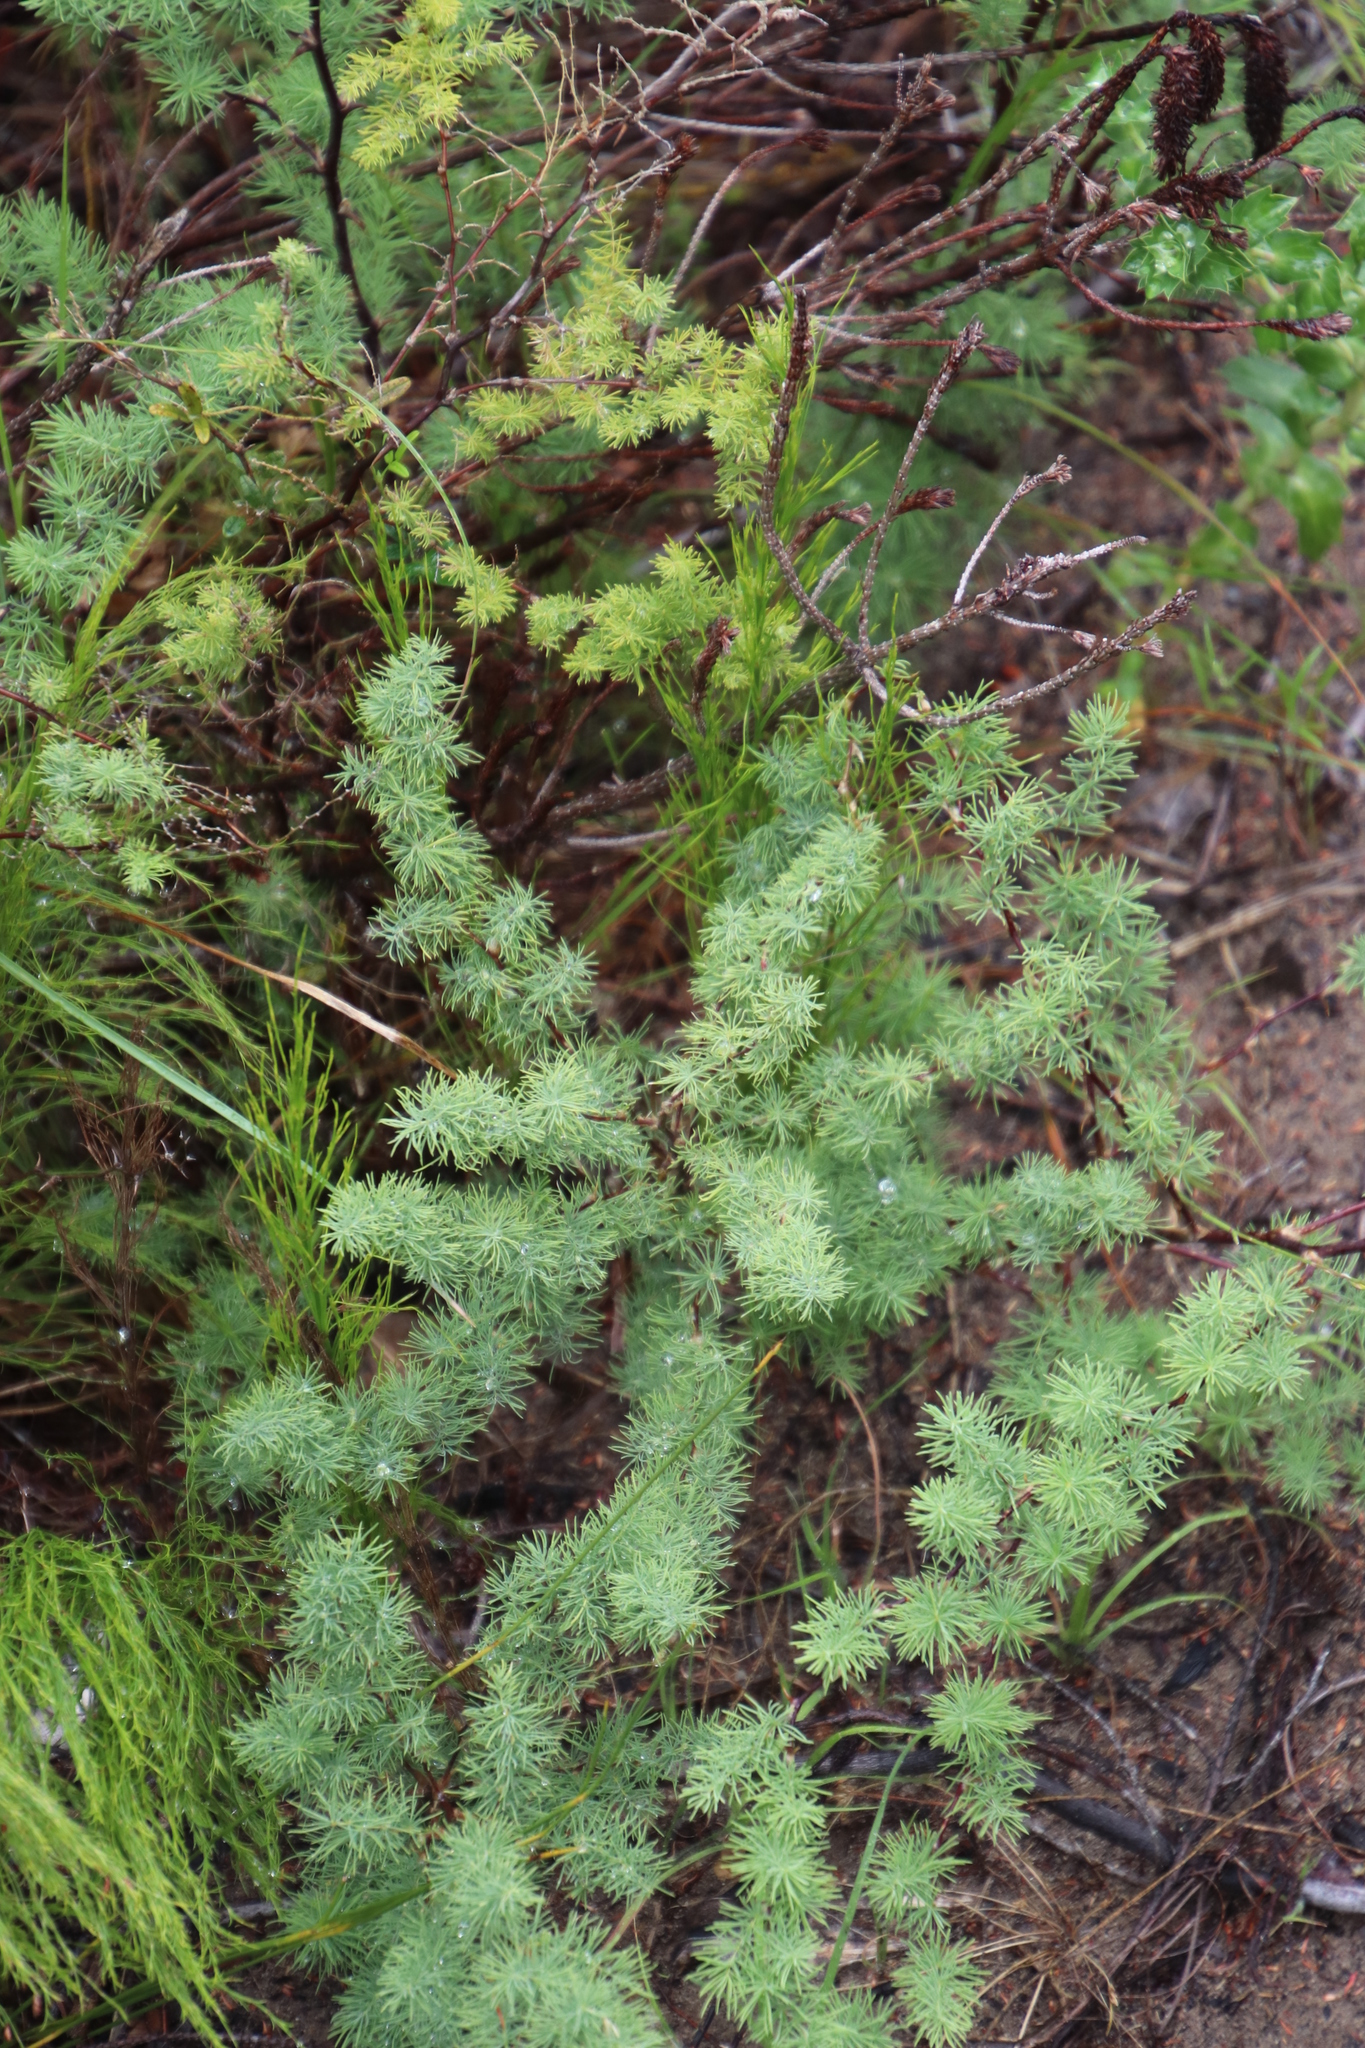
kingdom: Plantae
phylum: Tracheophyta
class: Liliopsida
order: Asparagales
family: Asparagaceae
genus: Asparagus
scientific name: Asparagus rubicundus
